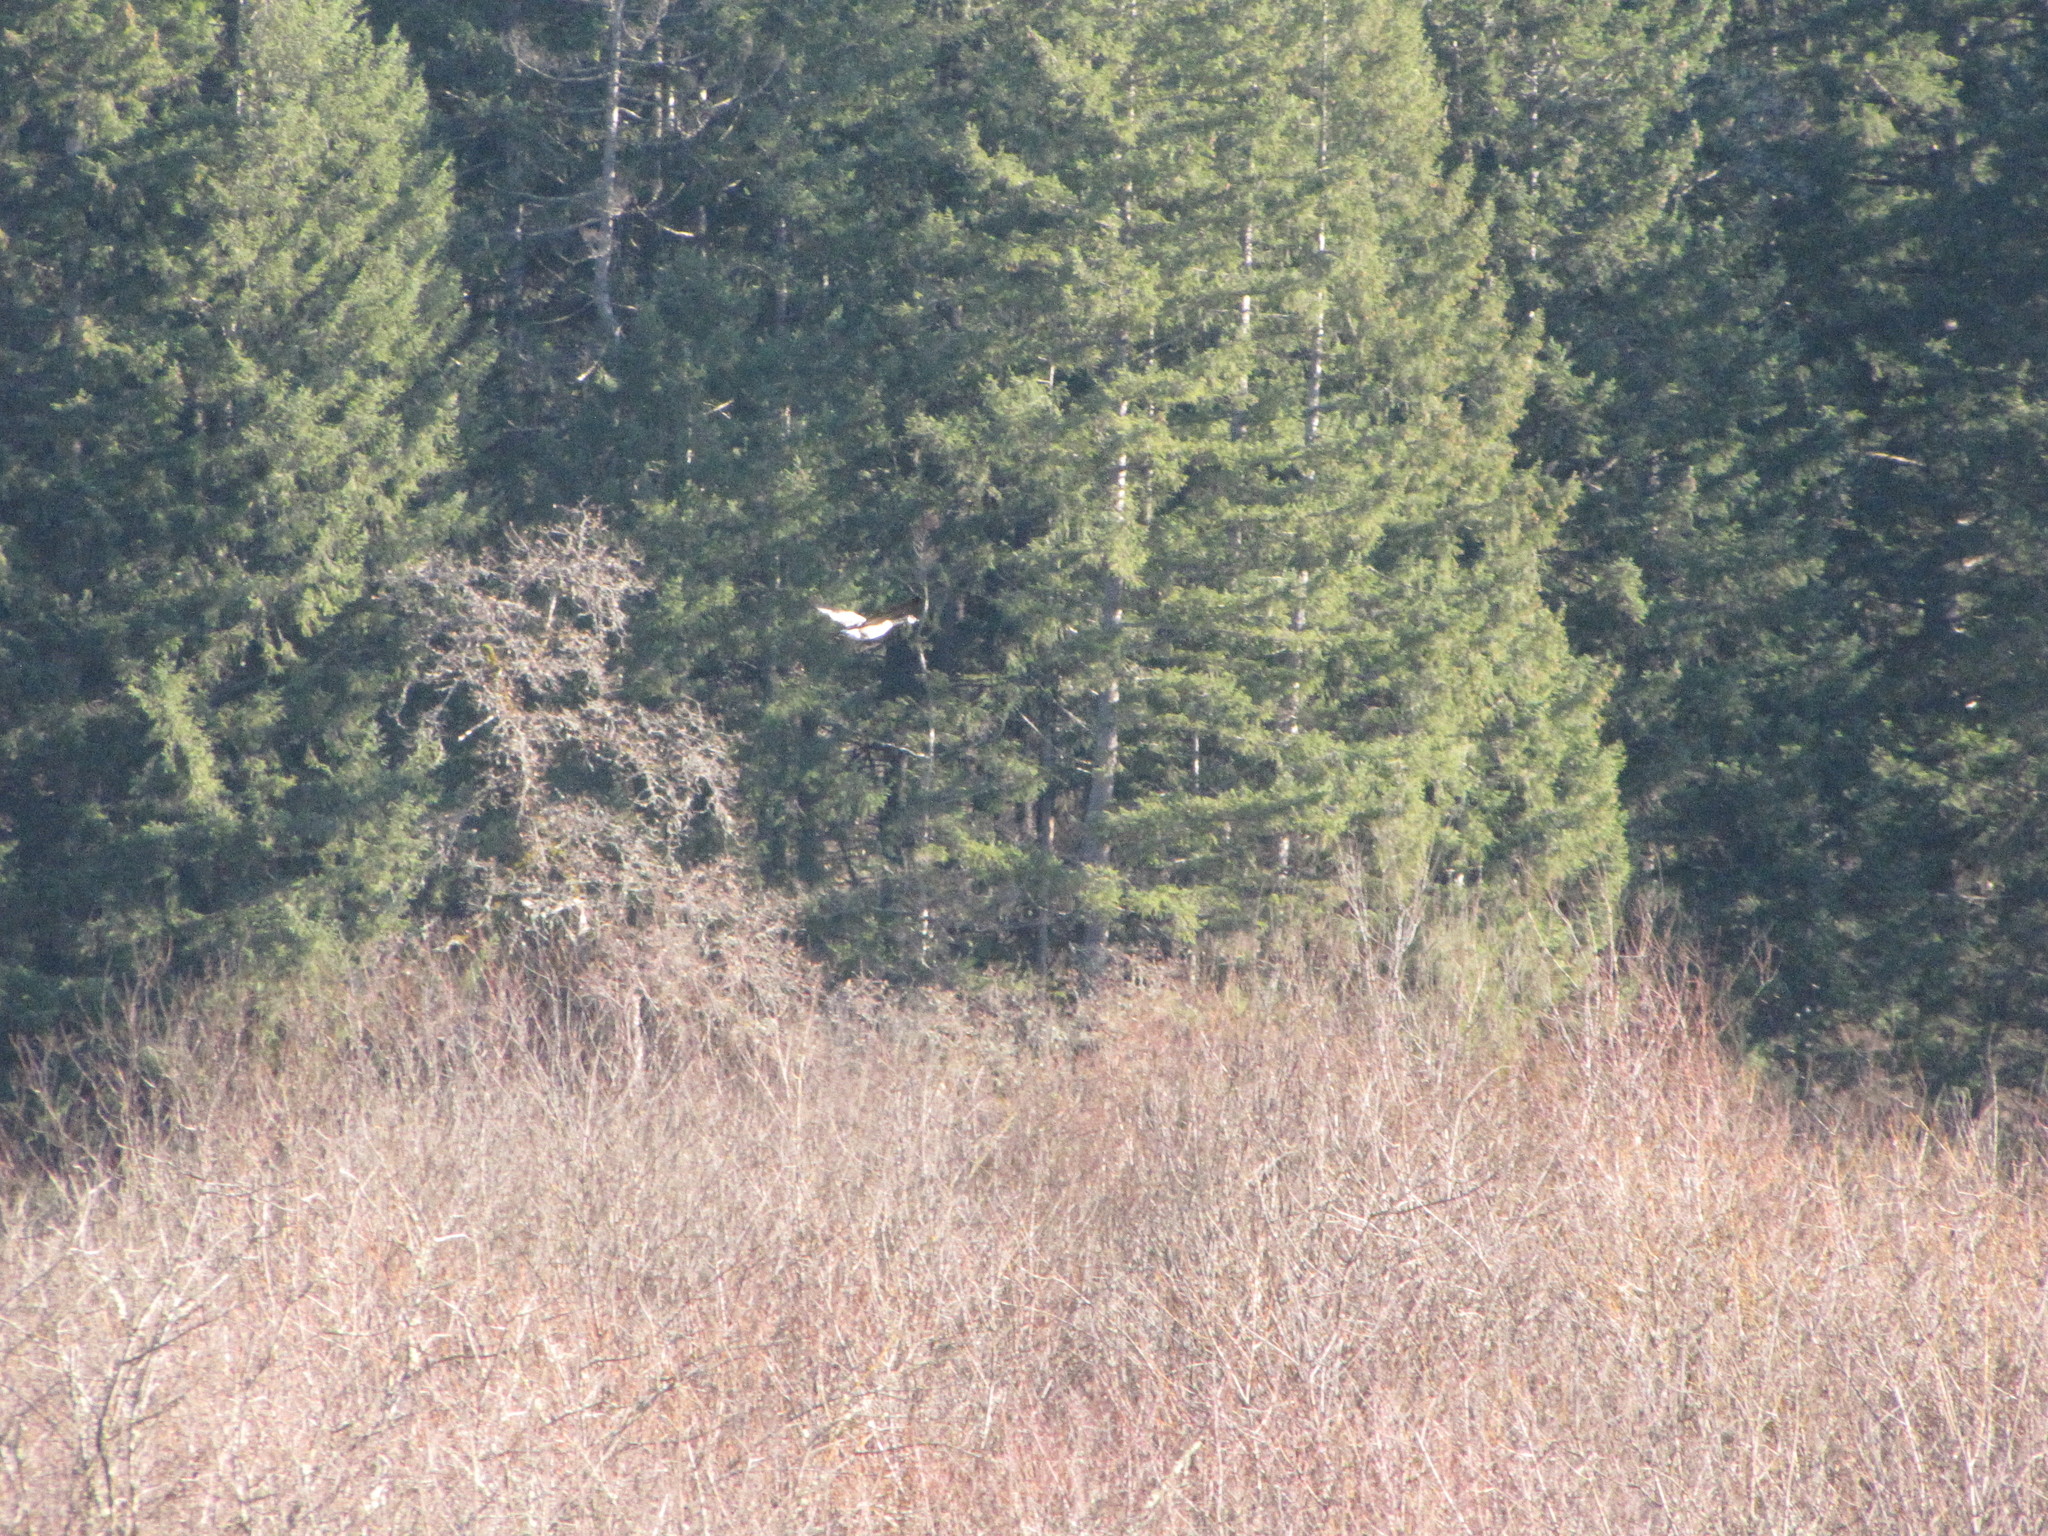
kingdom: Animalia
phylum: Chordata
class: Aves
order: Anseriformes
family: Anatidae
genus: Anas
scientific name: Anas acuta
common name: Northern pintail
